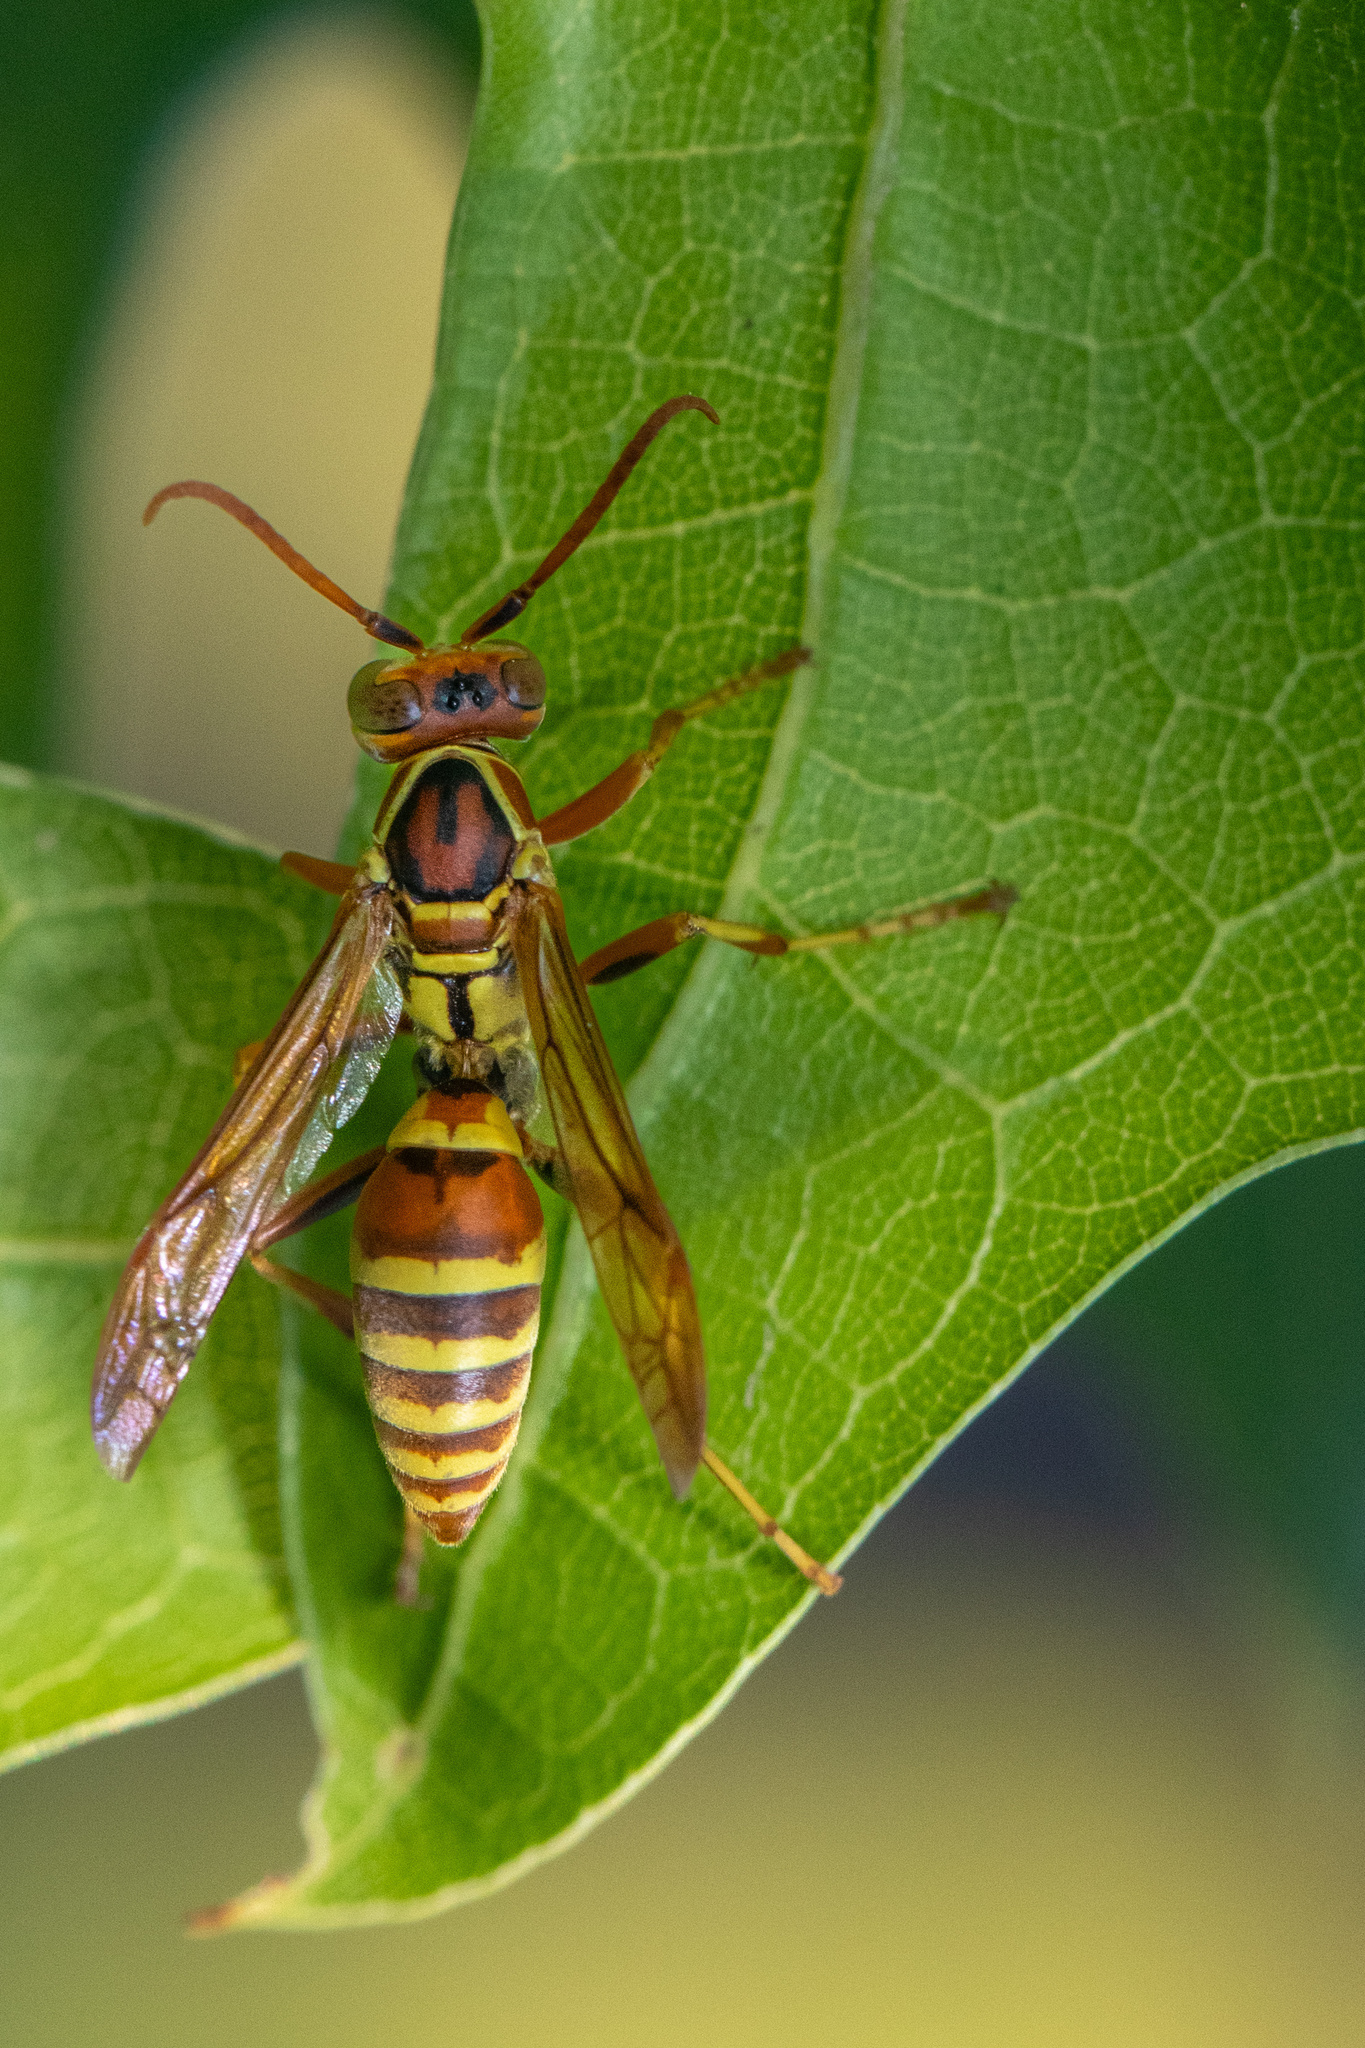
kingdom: Animalia
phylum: Arthropoda
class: Insecta
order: Hymenoptera
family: Eumenidae
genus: Polistes
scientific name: Polistes dorsalis
